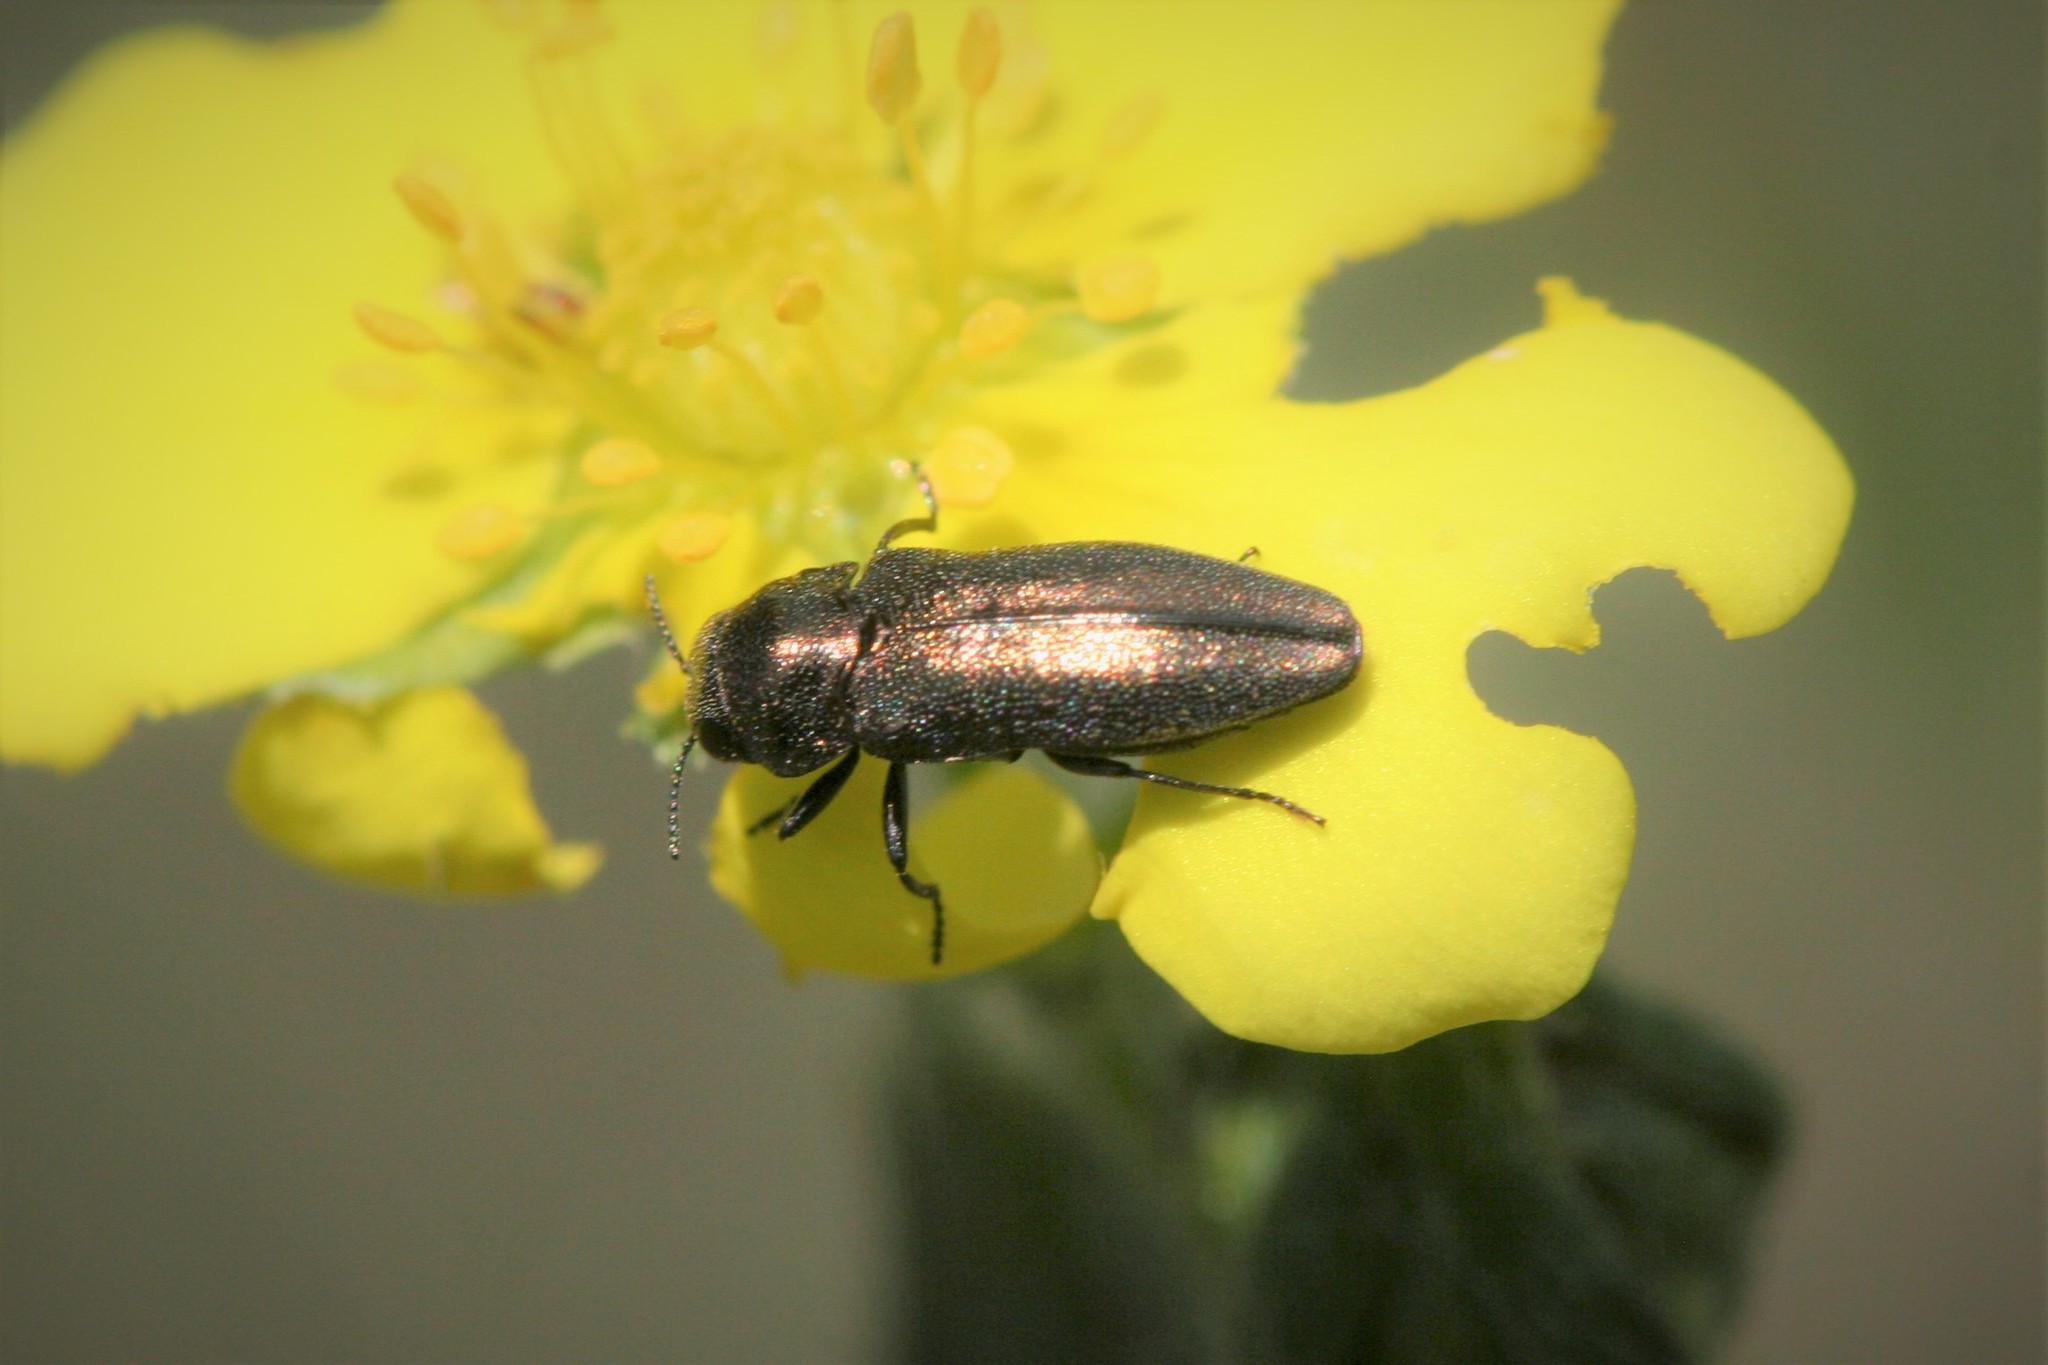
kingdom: Animalia
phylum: Arthropoda
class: Insecta
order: Coleoptera
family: Buprestidae
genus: Coraebus
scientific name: Coraebus elatus
